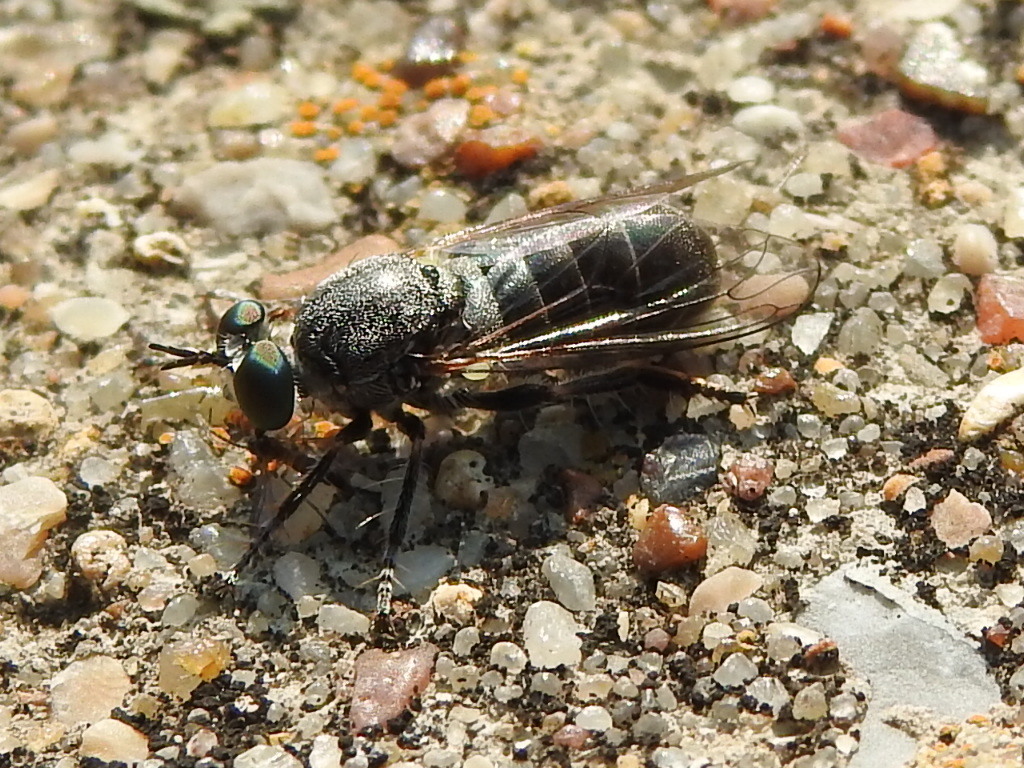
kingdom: Animalia
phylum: Arthropoda
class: Insecta
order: Diptera
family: Asilidae
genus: Atomosia
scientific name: Atomosia melanopogon
